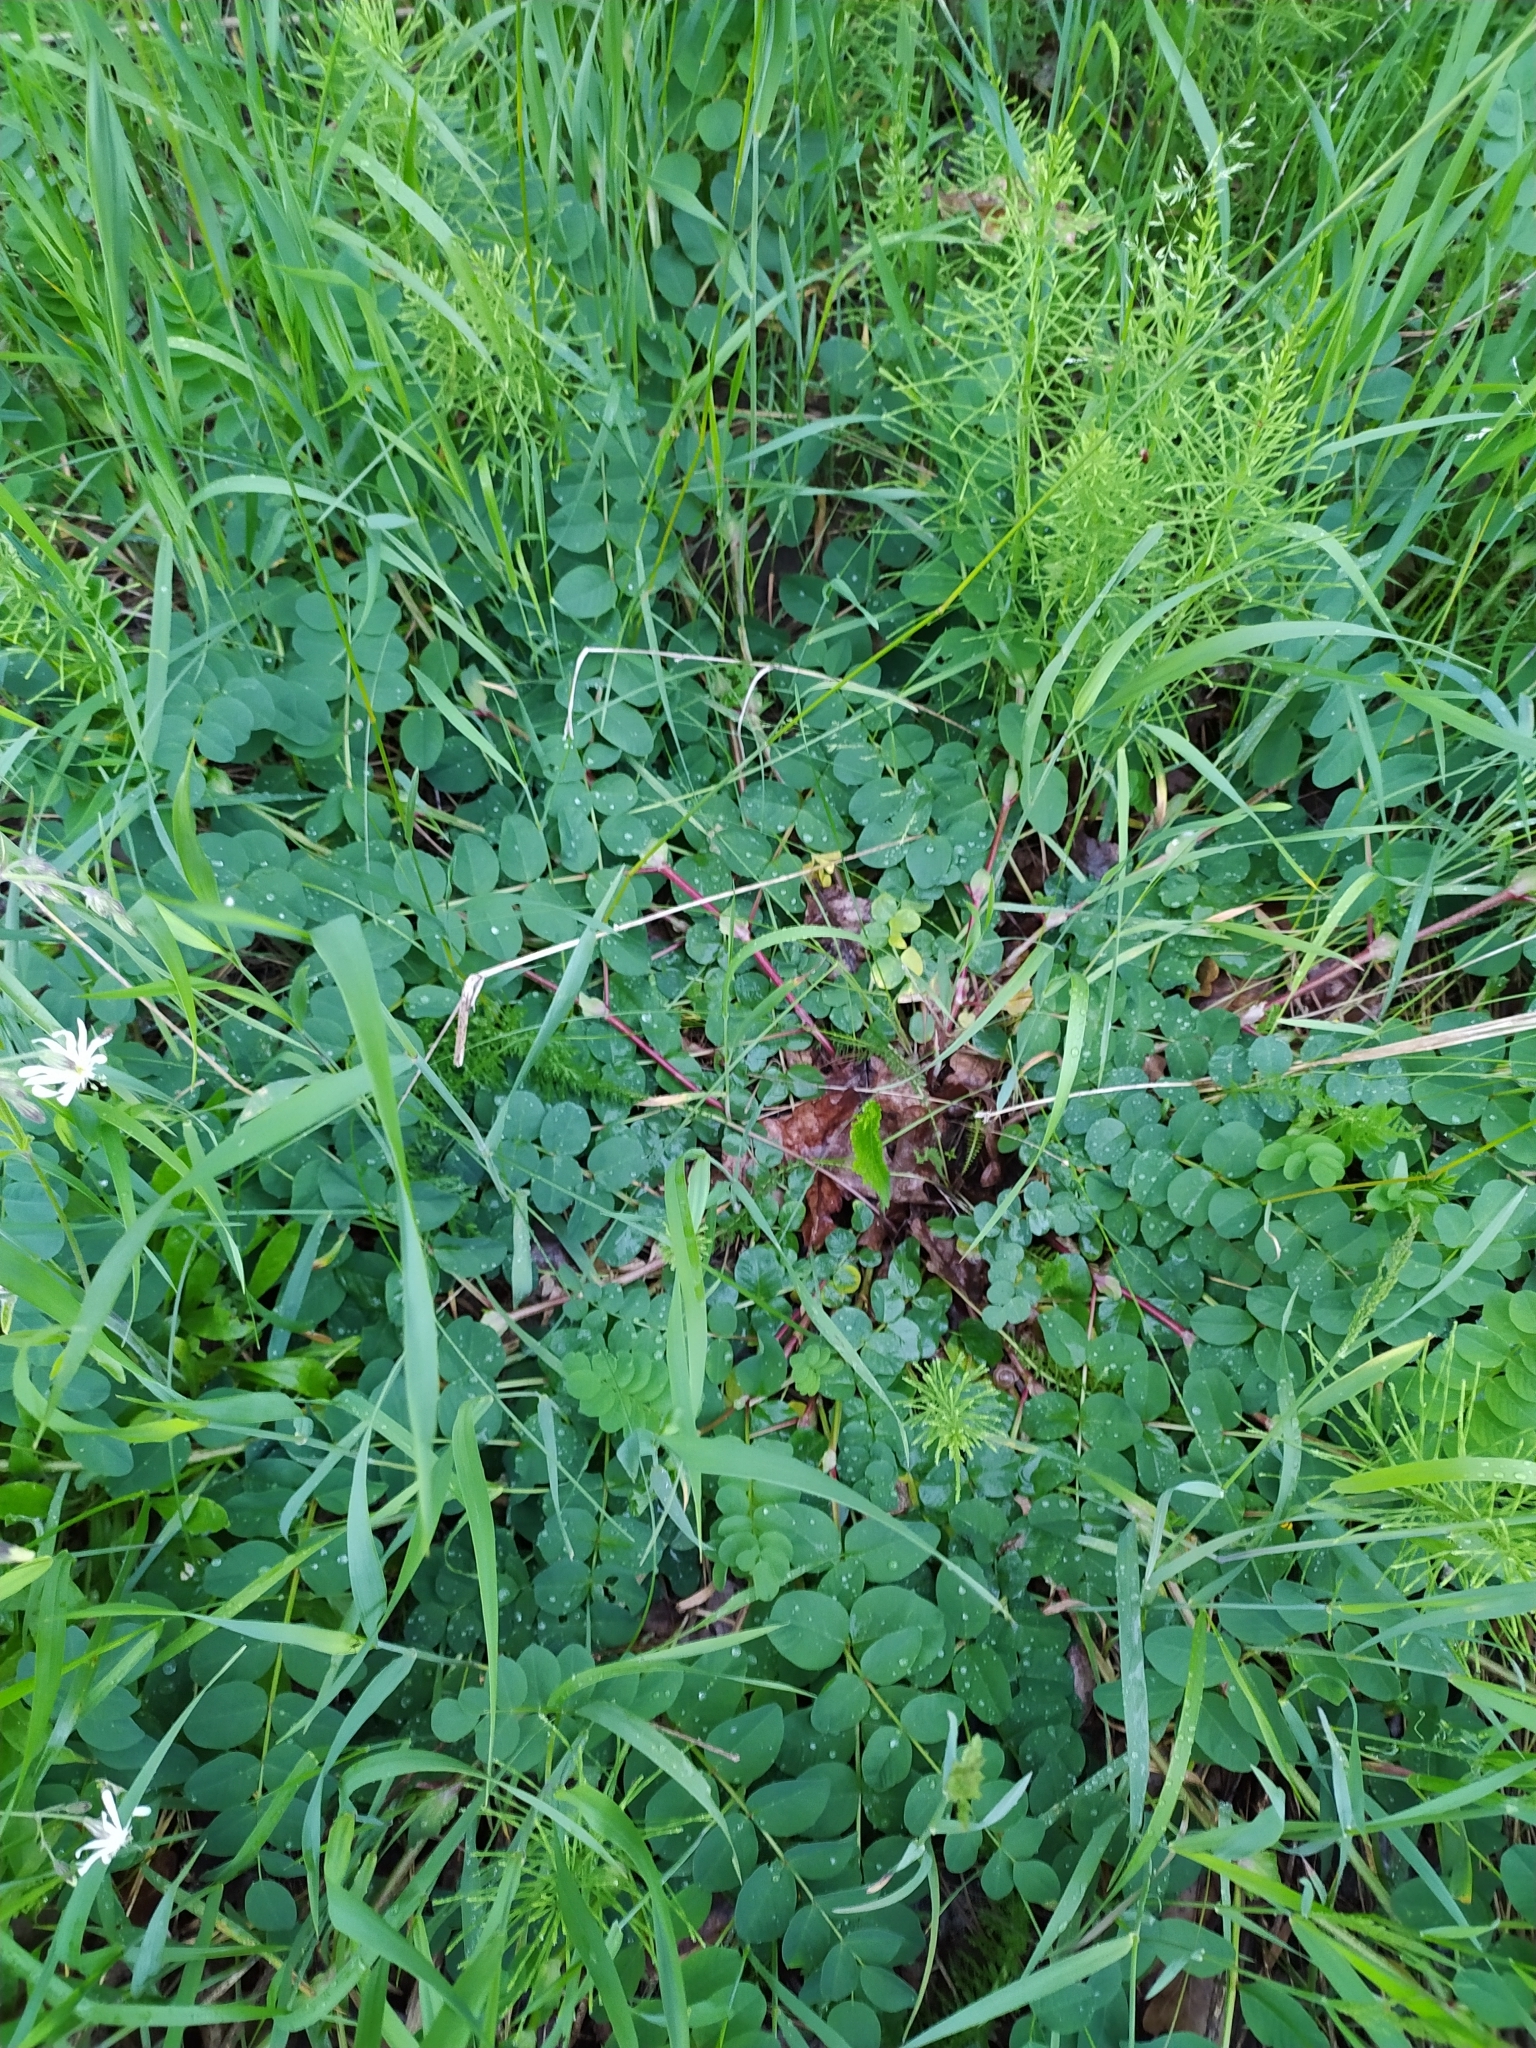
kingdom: Plantae
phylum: Tracheophyta
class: Magnoliopsida
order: Fabales
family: Fabaceae
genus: Astragalus
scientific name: Astragalus glycyphyllos
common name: Wild liquorice
